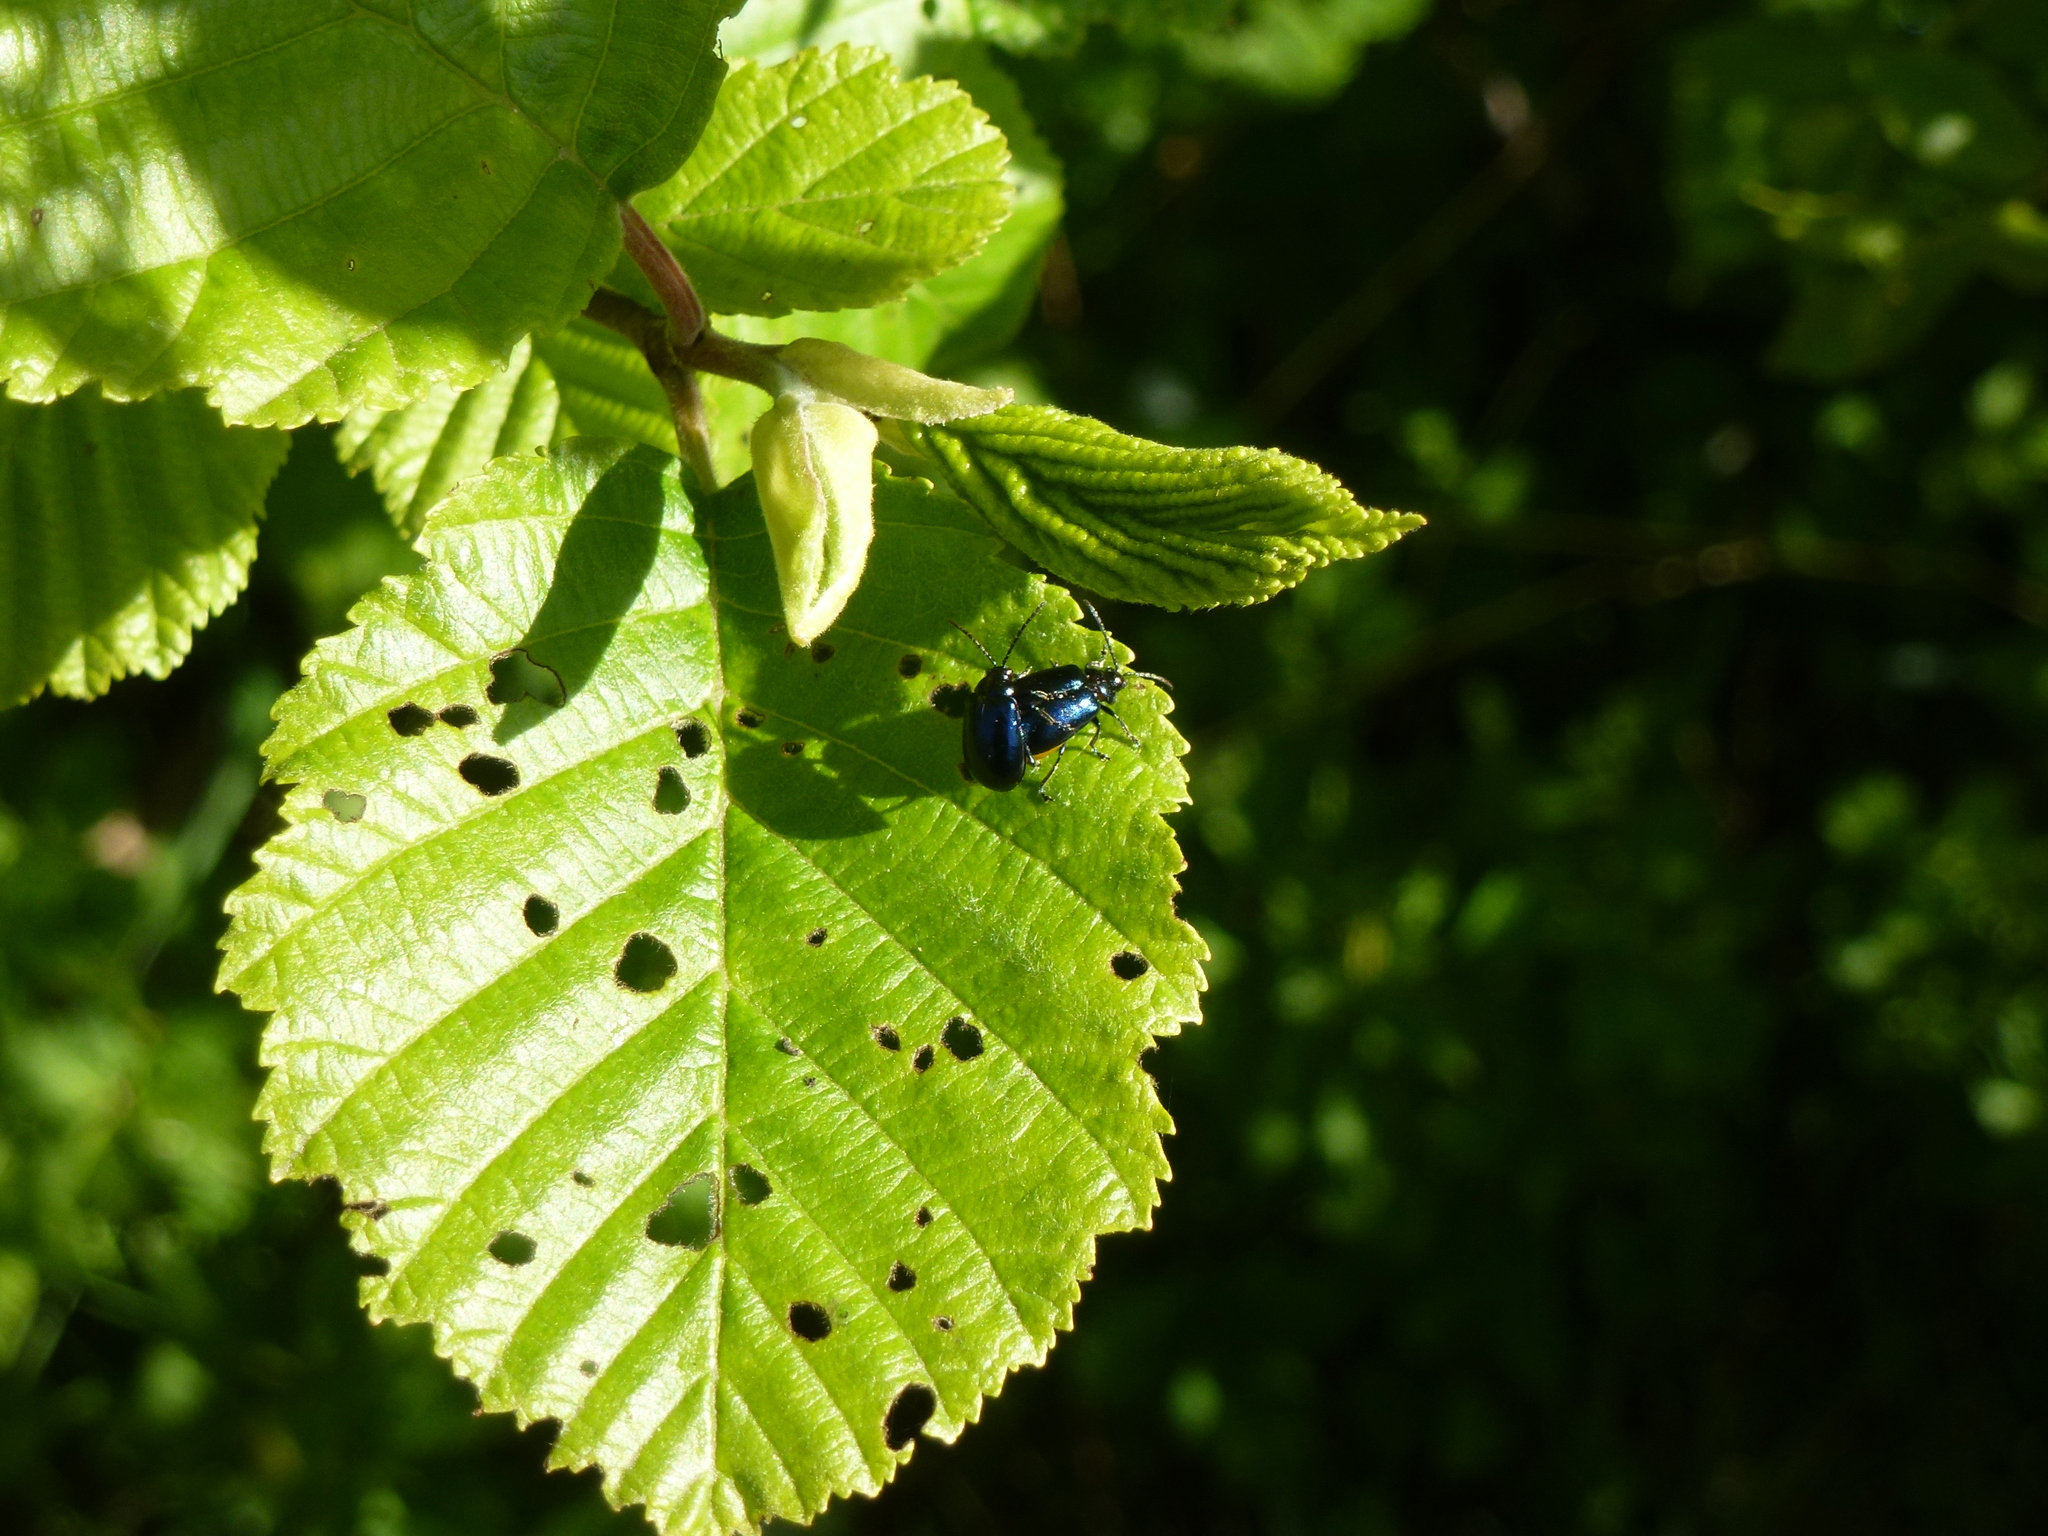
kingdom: Animalia
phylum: Arthropoda
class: Insecta
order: Coleoptera
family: Chrysomelidae
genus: Agelastica
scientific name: Agelastica alni
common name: Alder leaf beetle
